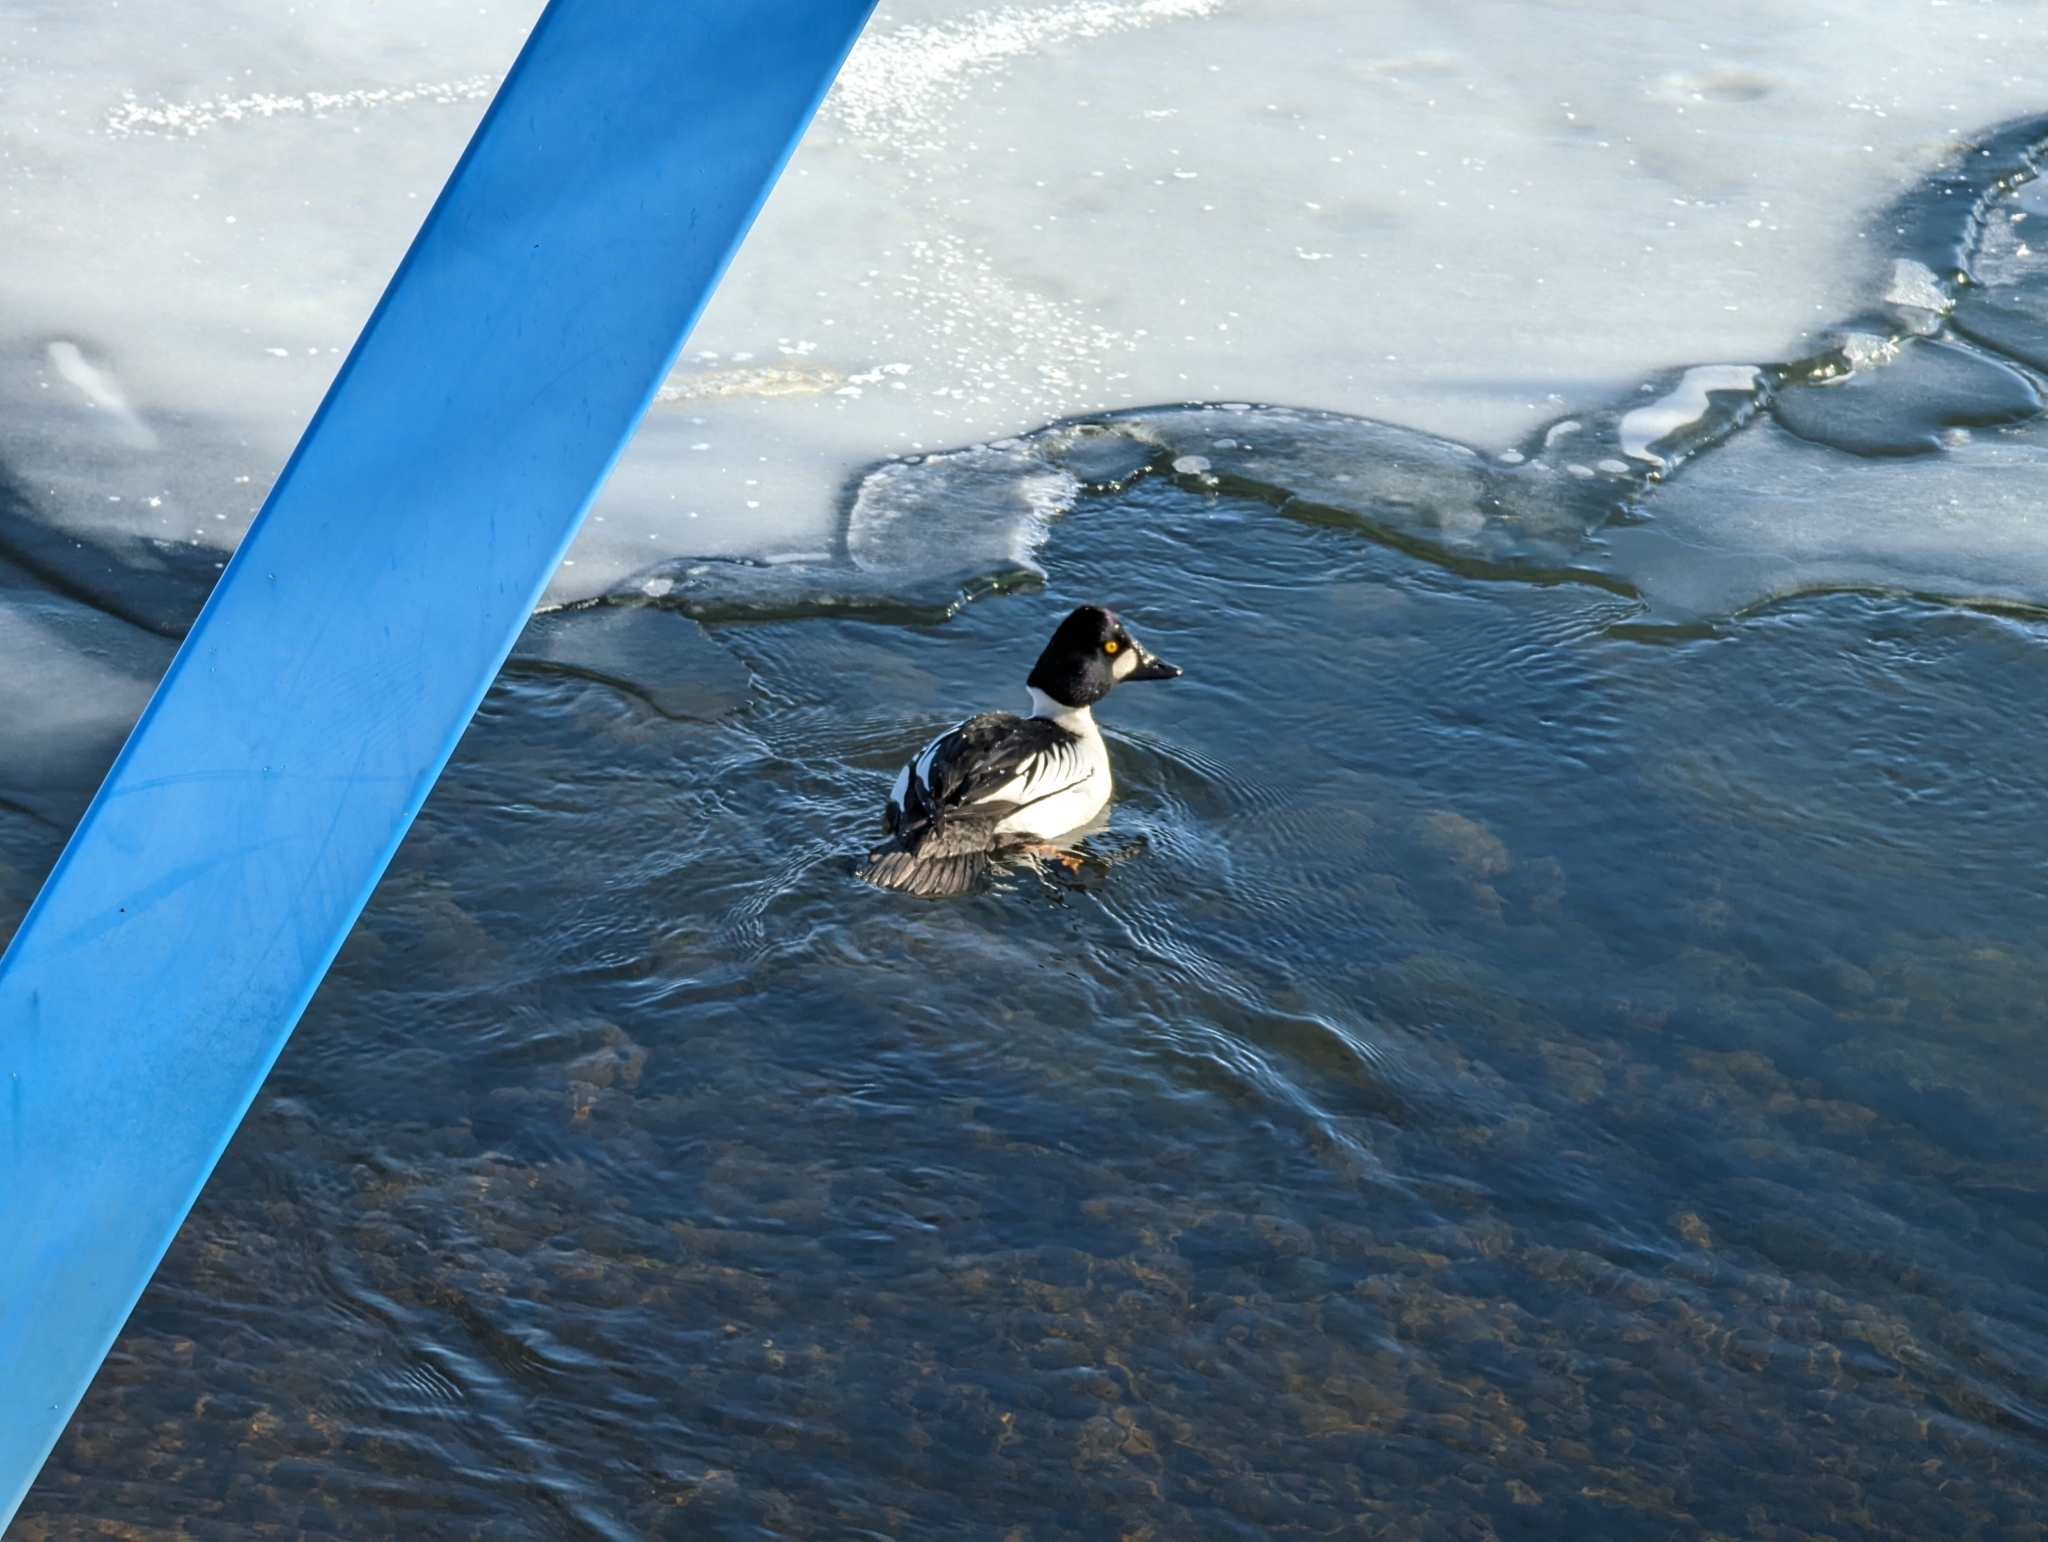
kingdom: Animalia
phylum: Chordata
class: Aves
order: Anseriformes
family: Anatidae
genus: Bucephala
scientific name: Bucephala clangula
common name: Common goldeneye
